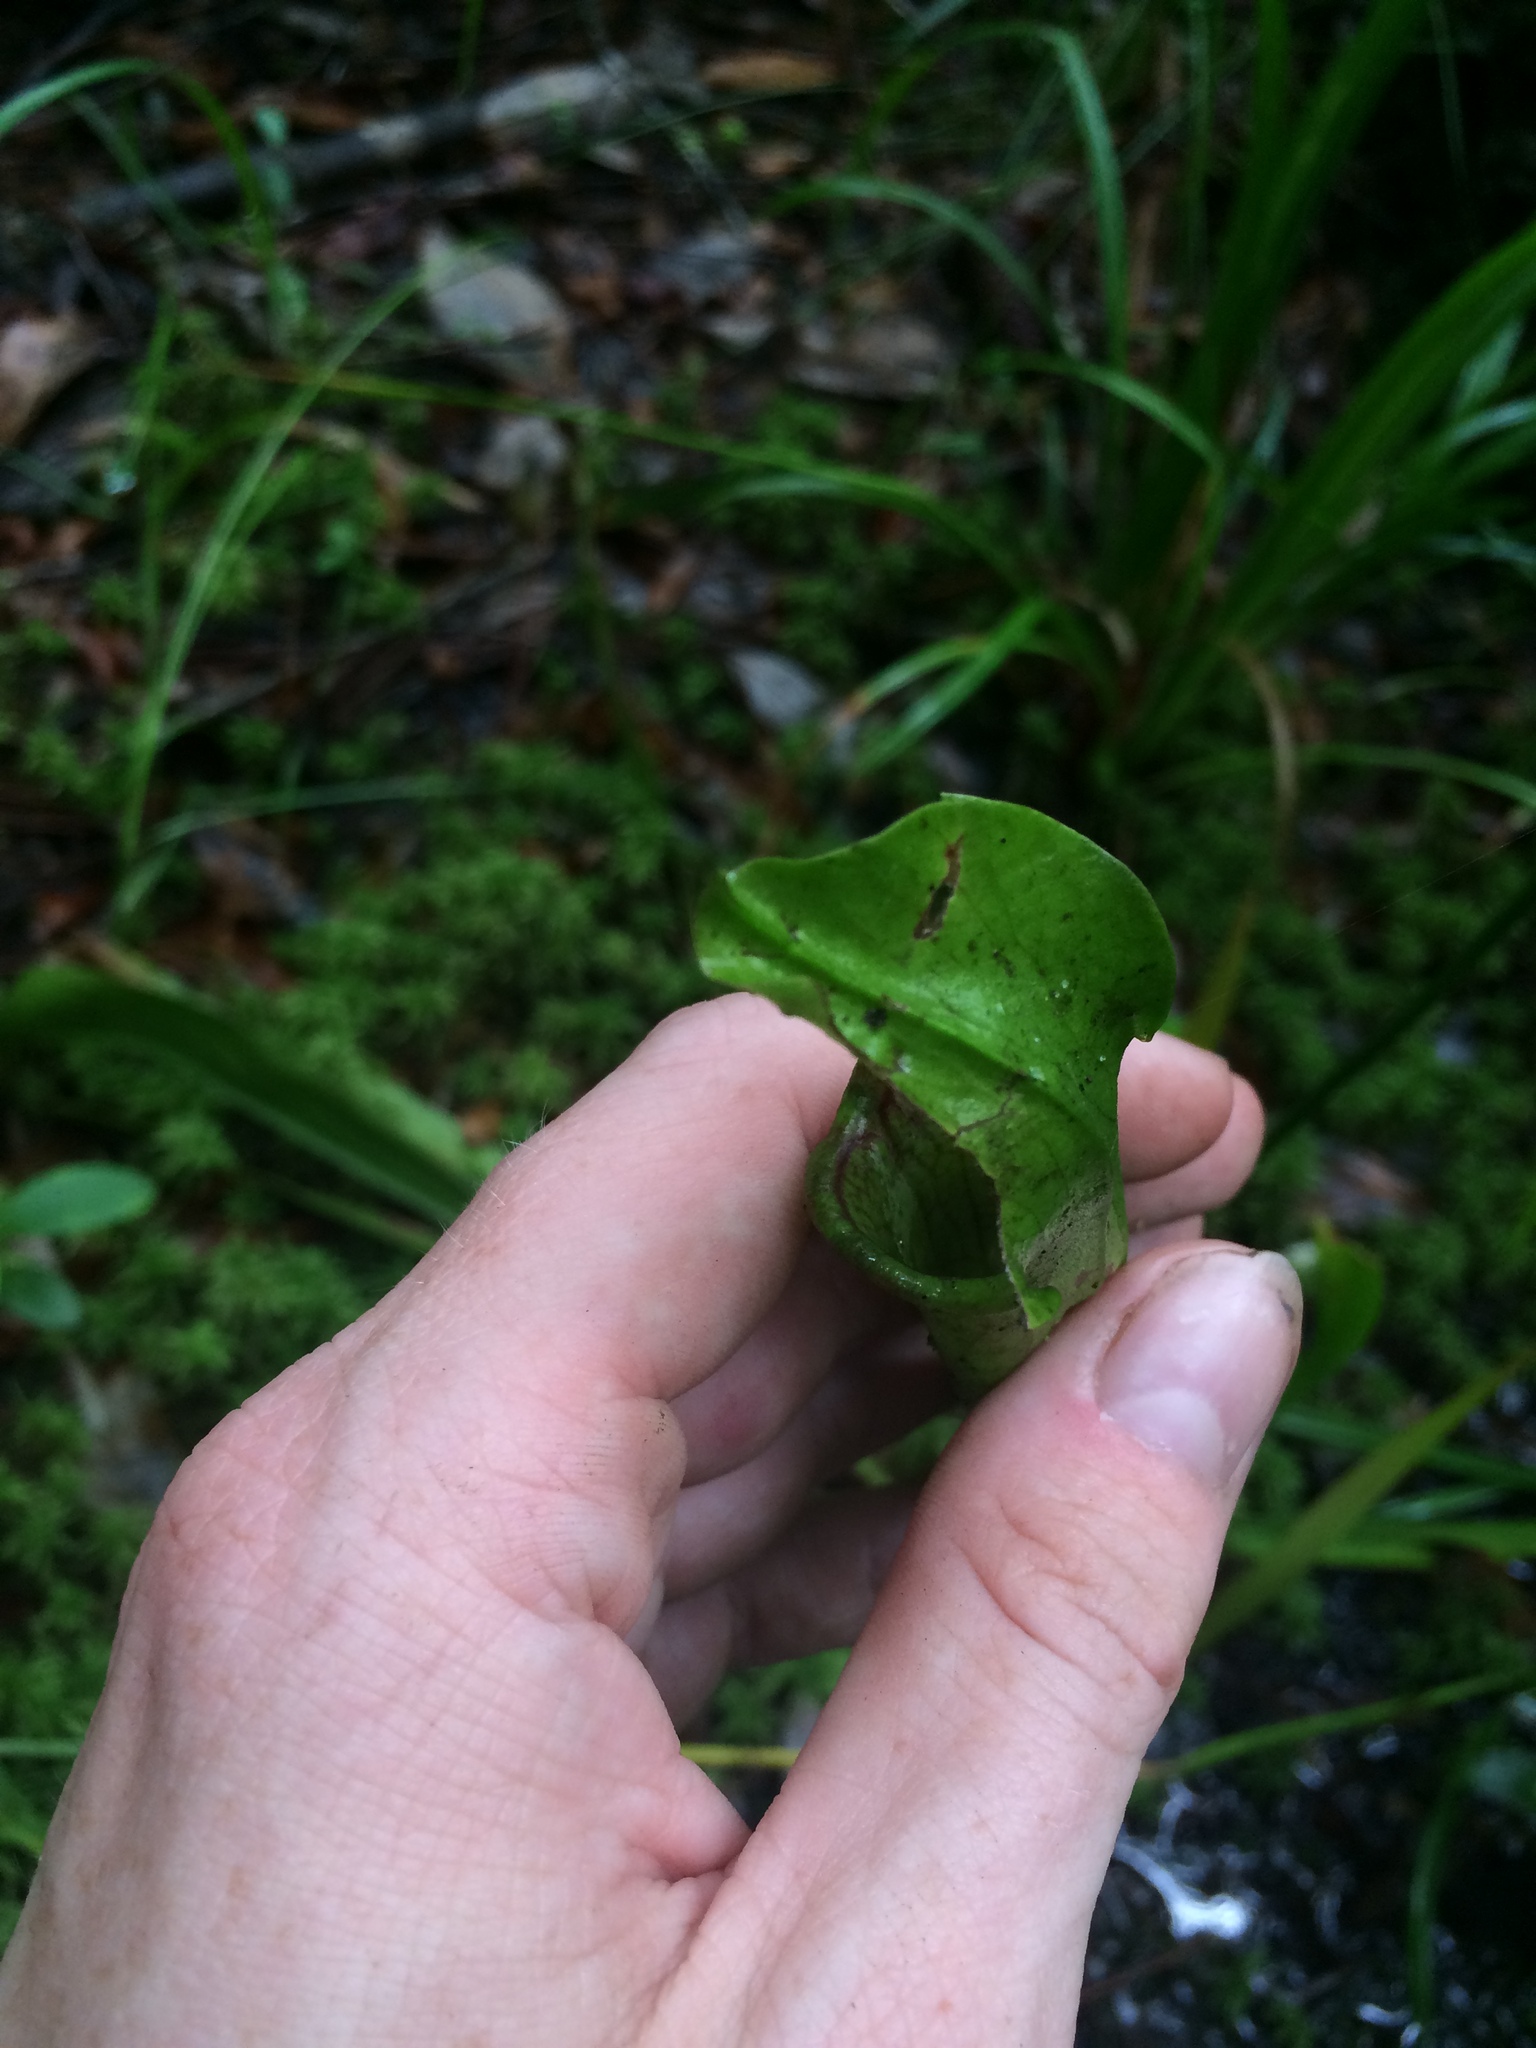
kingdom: Plantae
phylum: Tracheophyta
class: Magnoliopsida
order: Ericales
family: Sarraceniaceae
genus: Sarracenia
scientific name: Sarracenia rubra
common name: Sweet pitcherplant
